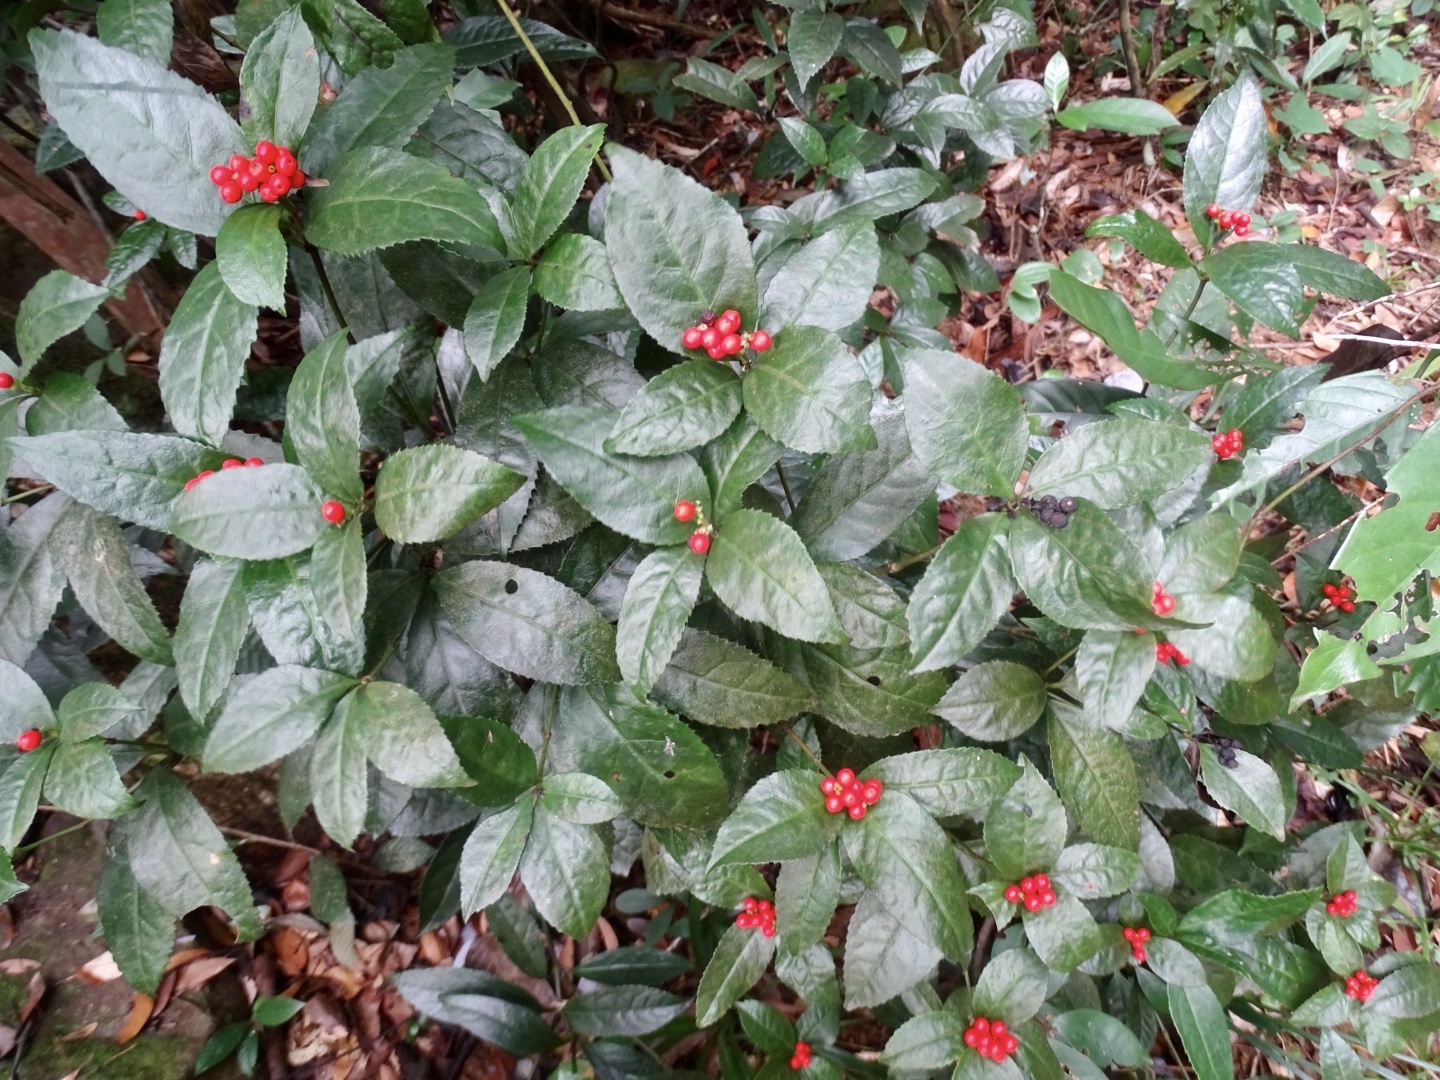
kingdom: Plantae
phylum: Tracheophyta
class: Magnoliopsida
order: Chloranthales
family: Chloranthaceae
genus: Sarcandra
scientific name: Sarcandra glabra
